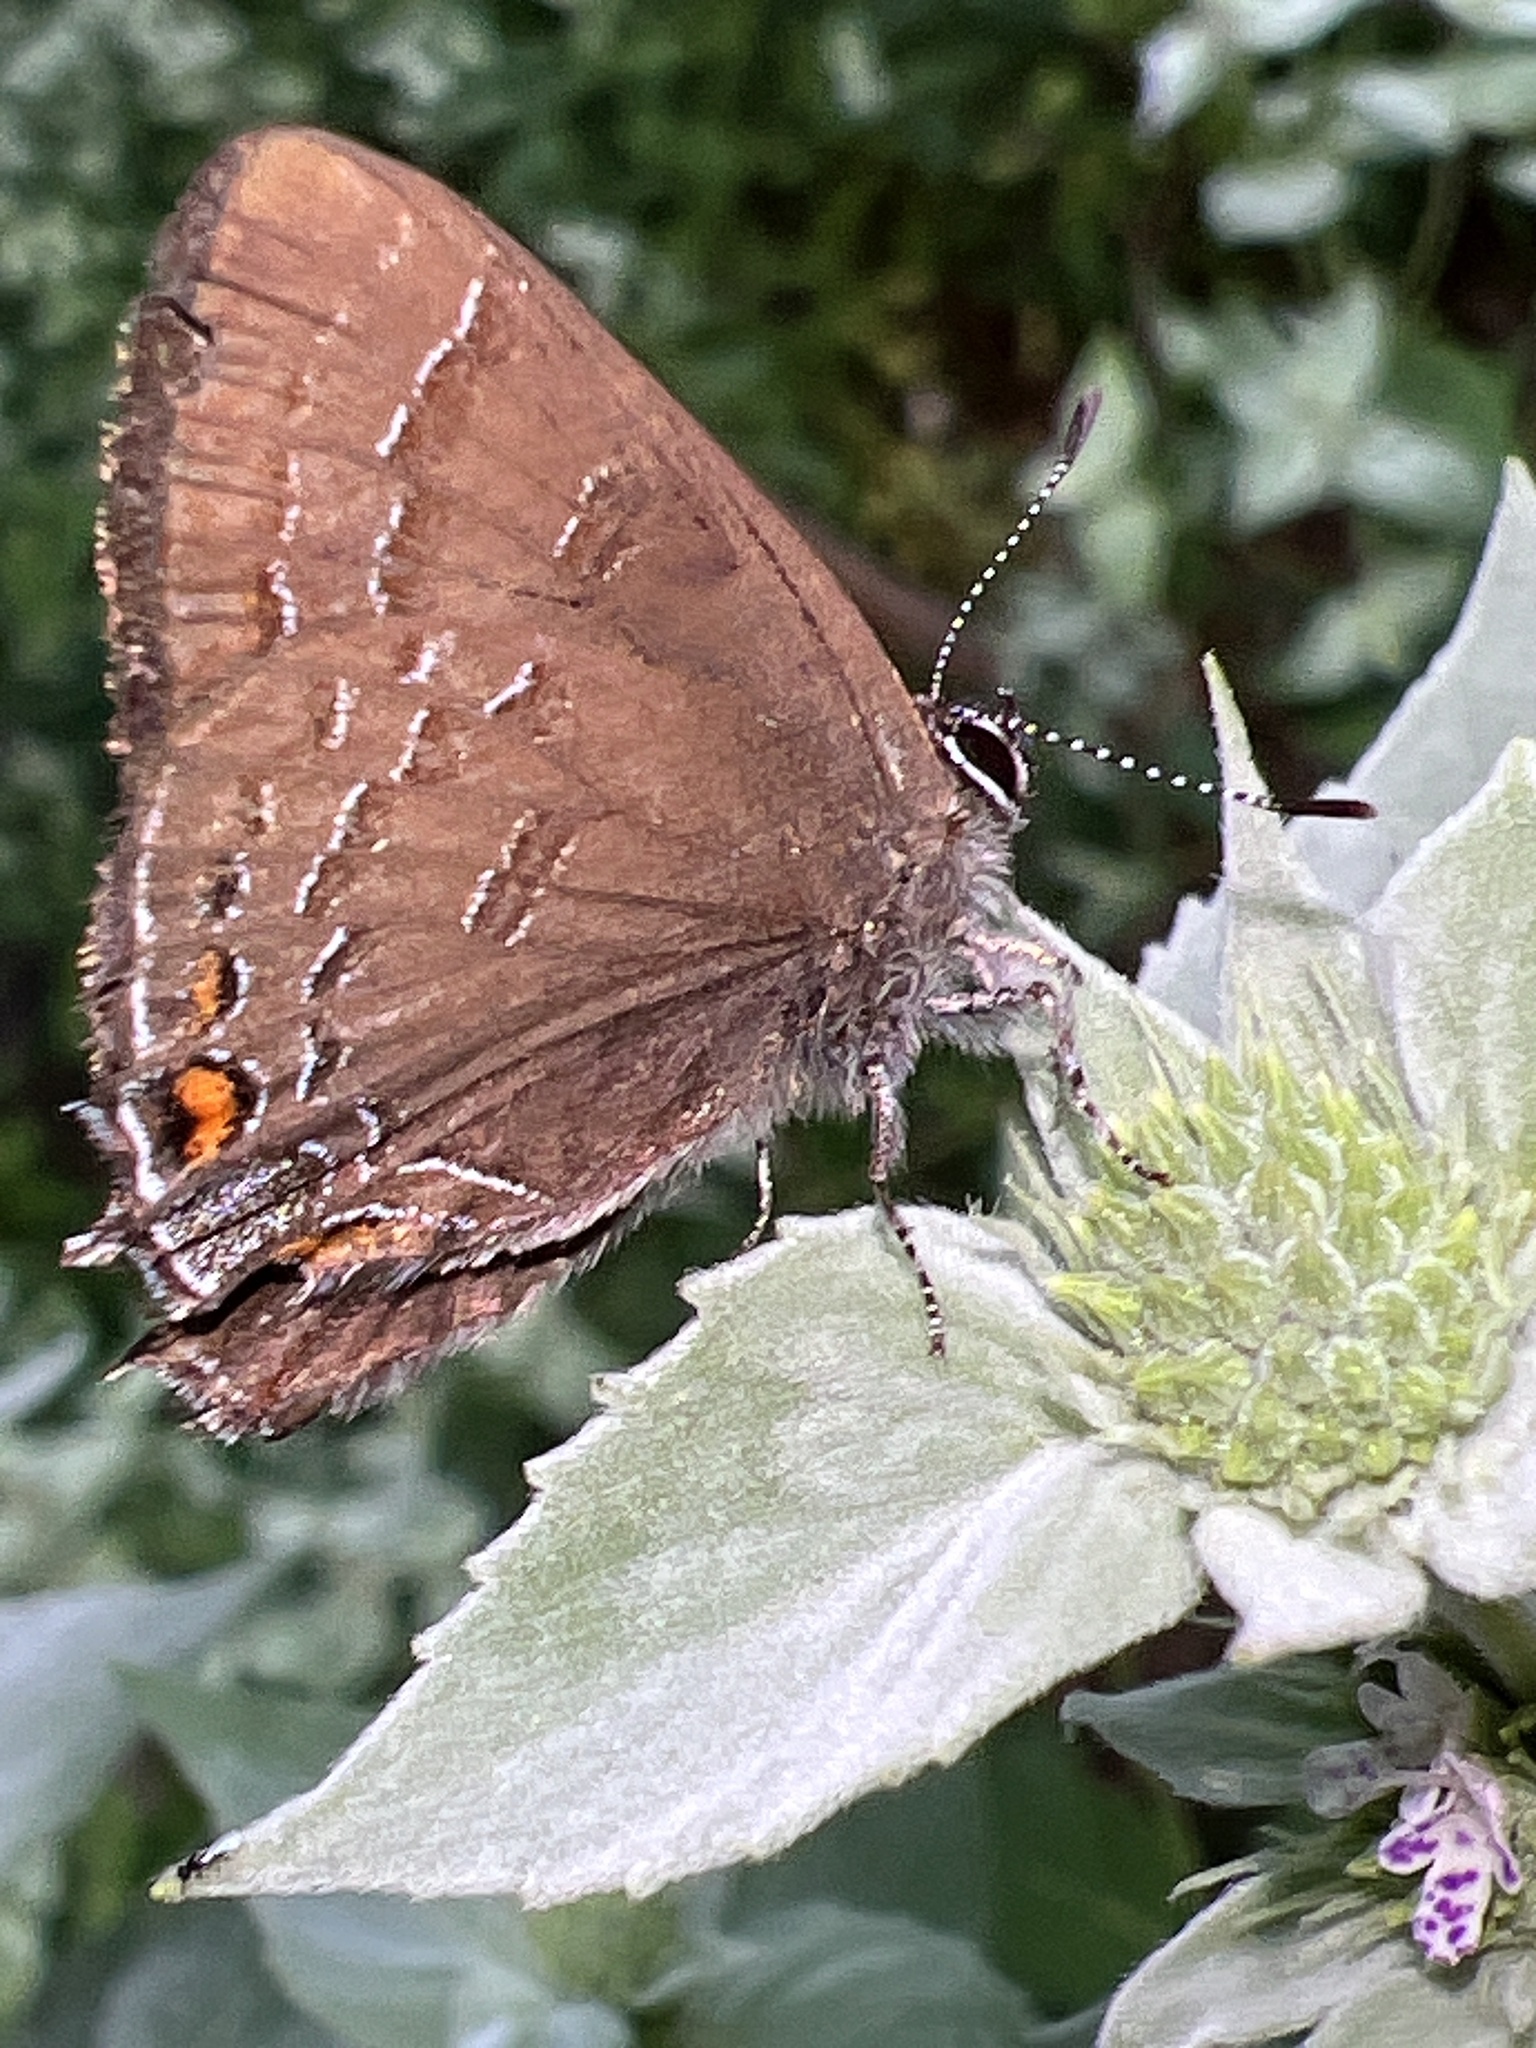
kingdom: Animalia
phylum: Arthropoda
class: Insecta
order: Lepidoptera
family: Lycaenidae
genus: Satyrium
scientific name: Satyrium calanus
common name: Banded hairstreak
